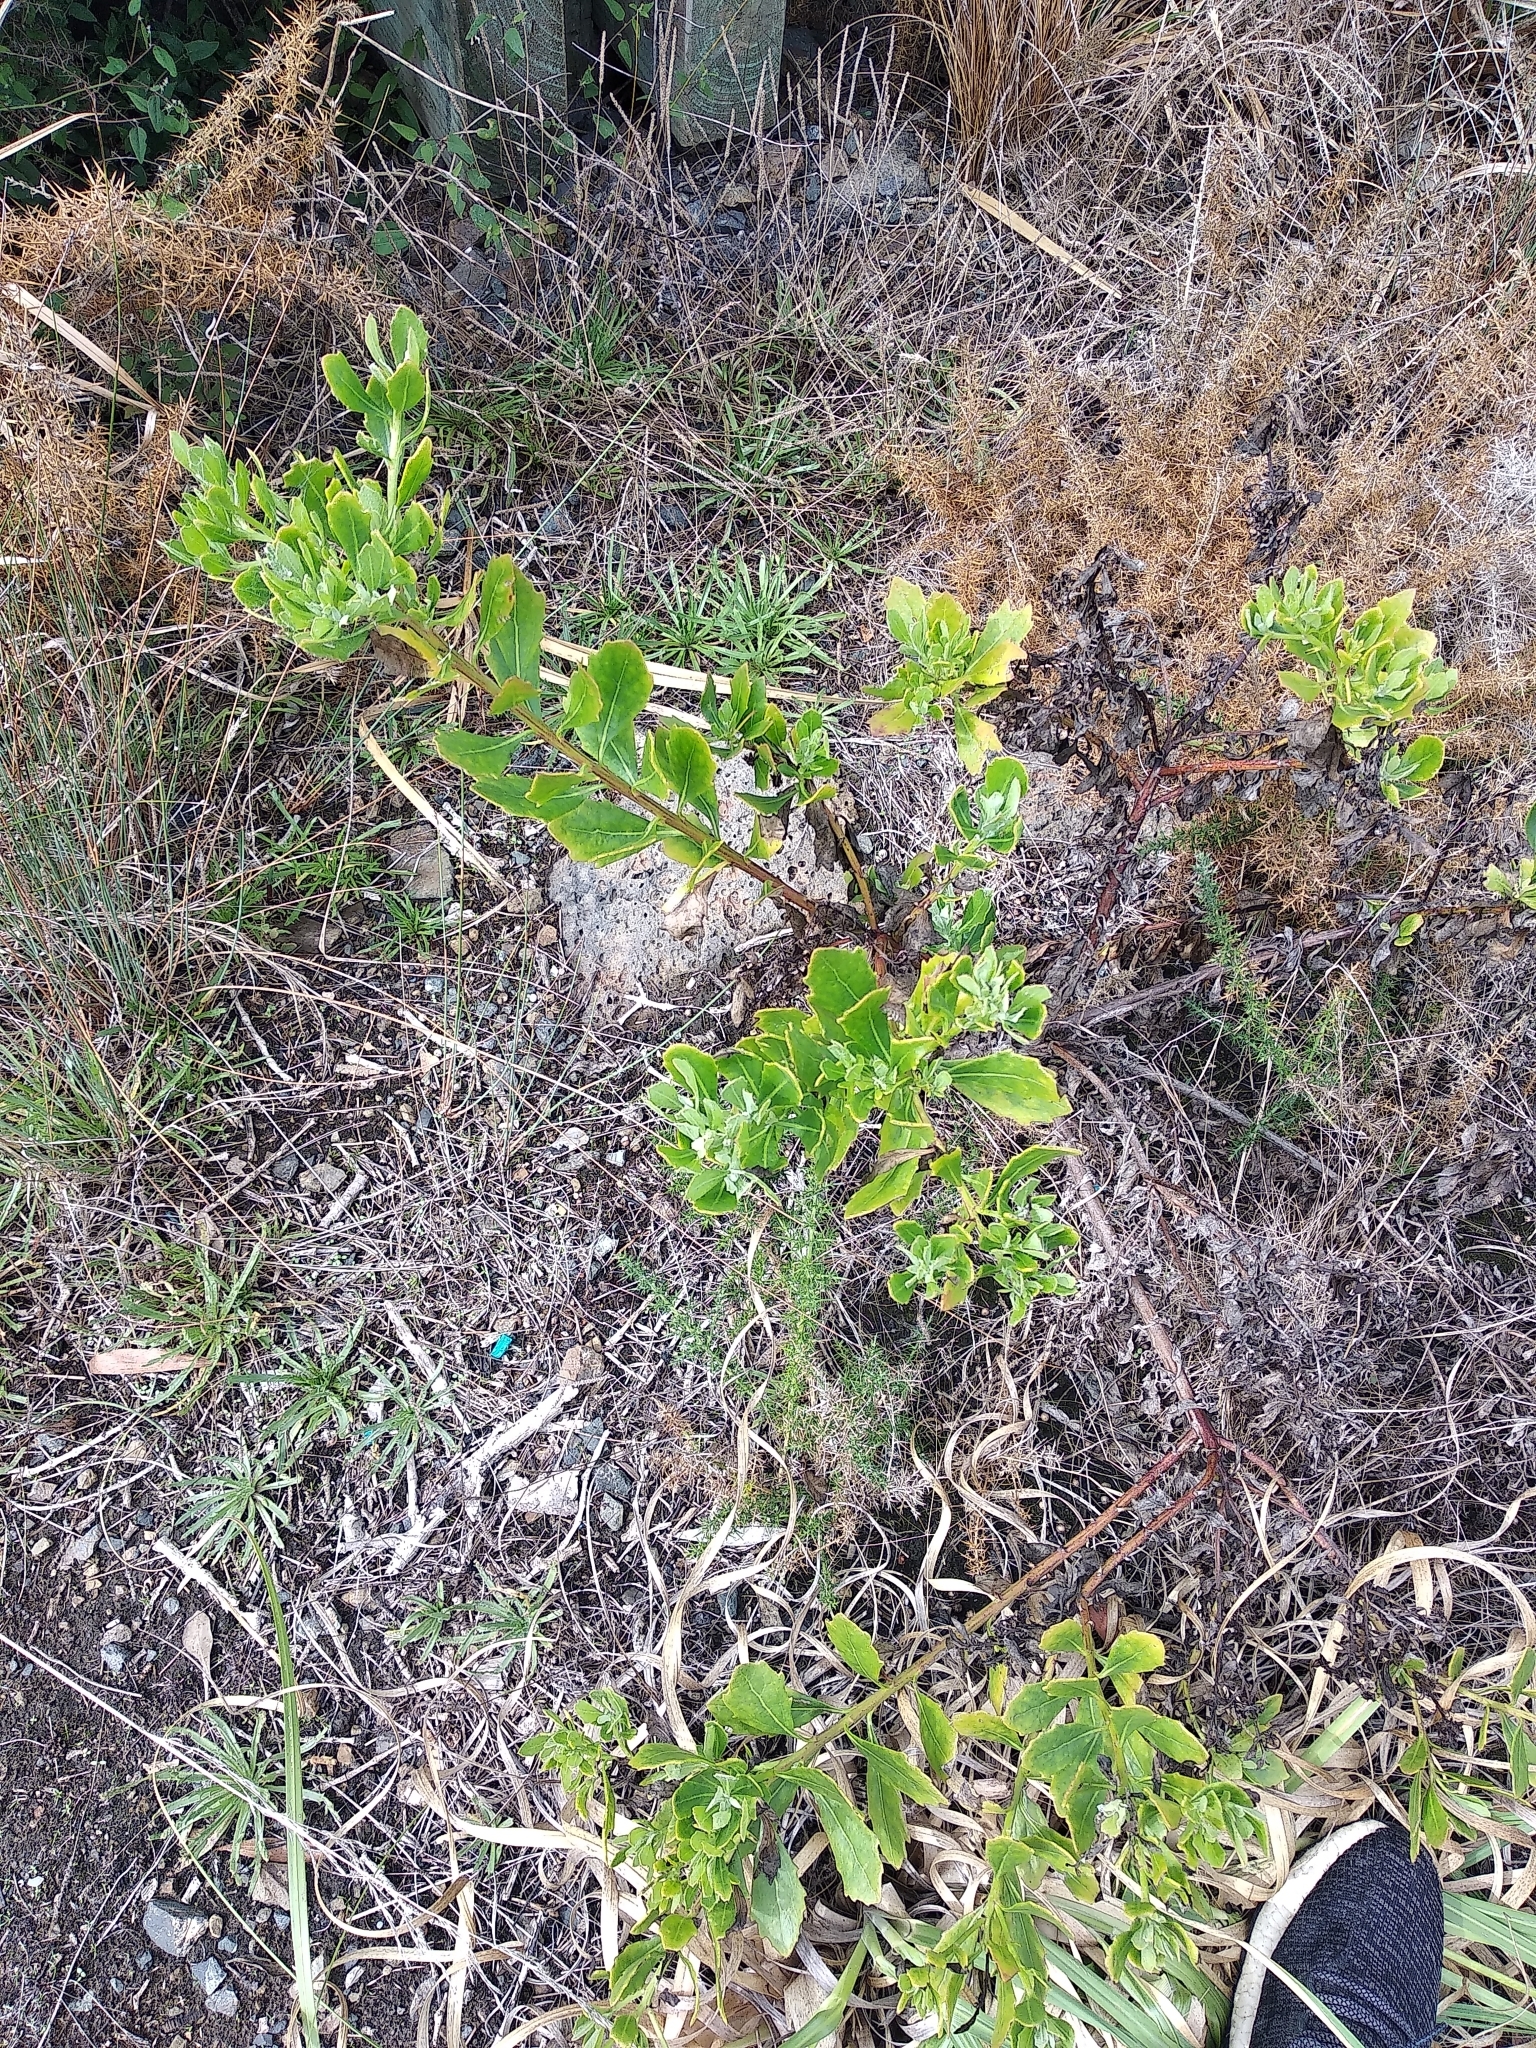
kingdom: Plantae
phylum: Tracheophyta
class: Magnoliopsida
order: Asterales
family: Asteraceae
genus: Osteospermum
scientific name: Osteospermum moniliferum
